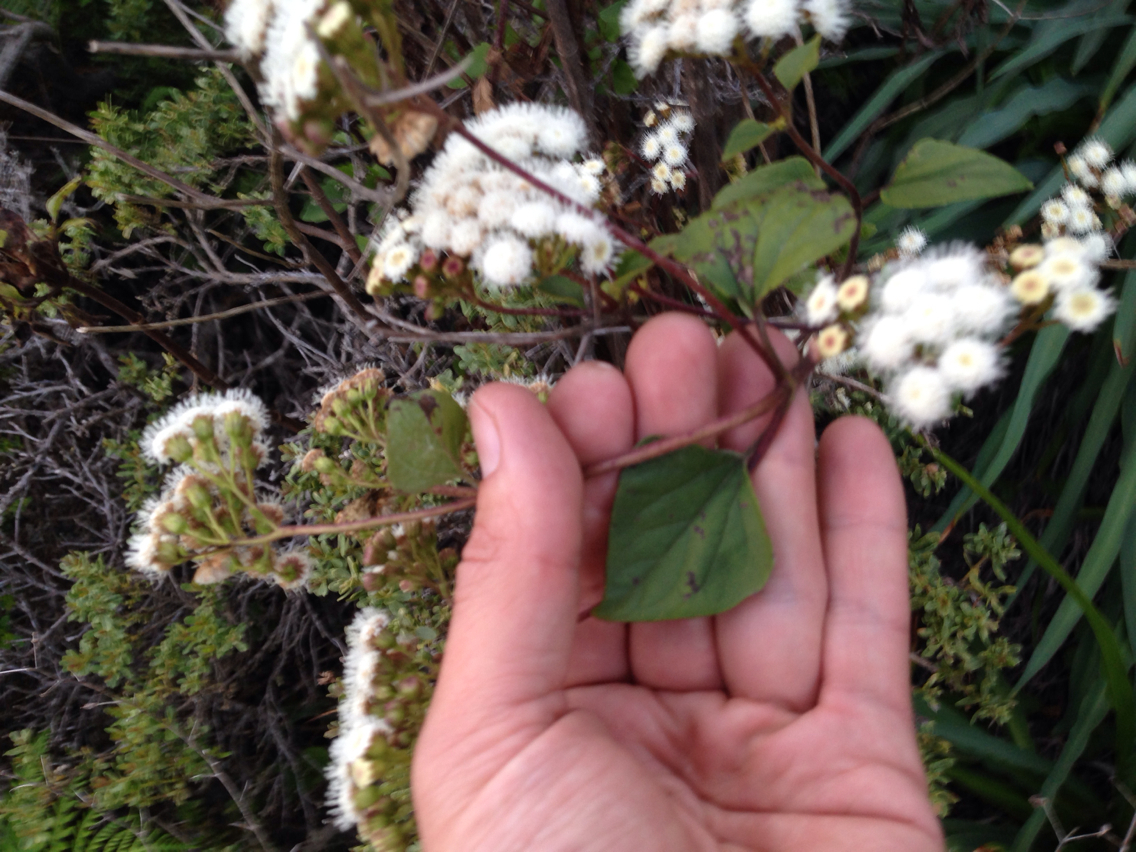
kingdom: Plantae
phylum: Tracheophyta
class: Magnoliopsida
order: Asterales
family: Asteraceae
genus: Ageratina
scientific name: Ageratina adenophora
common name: Sticky snakeroot
